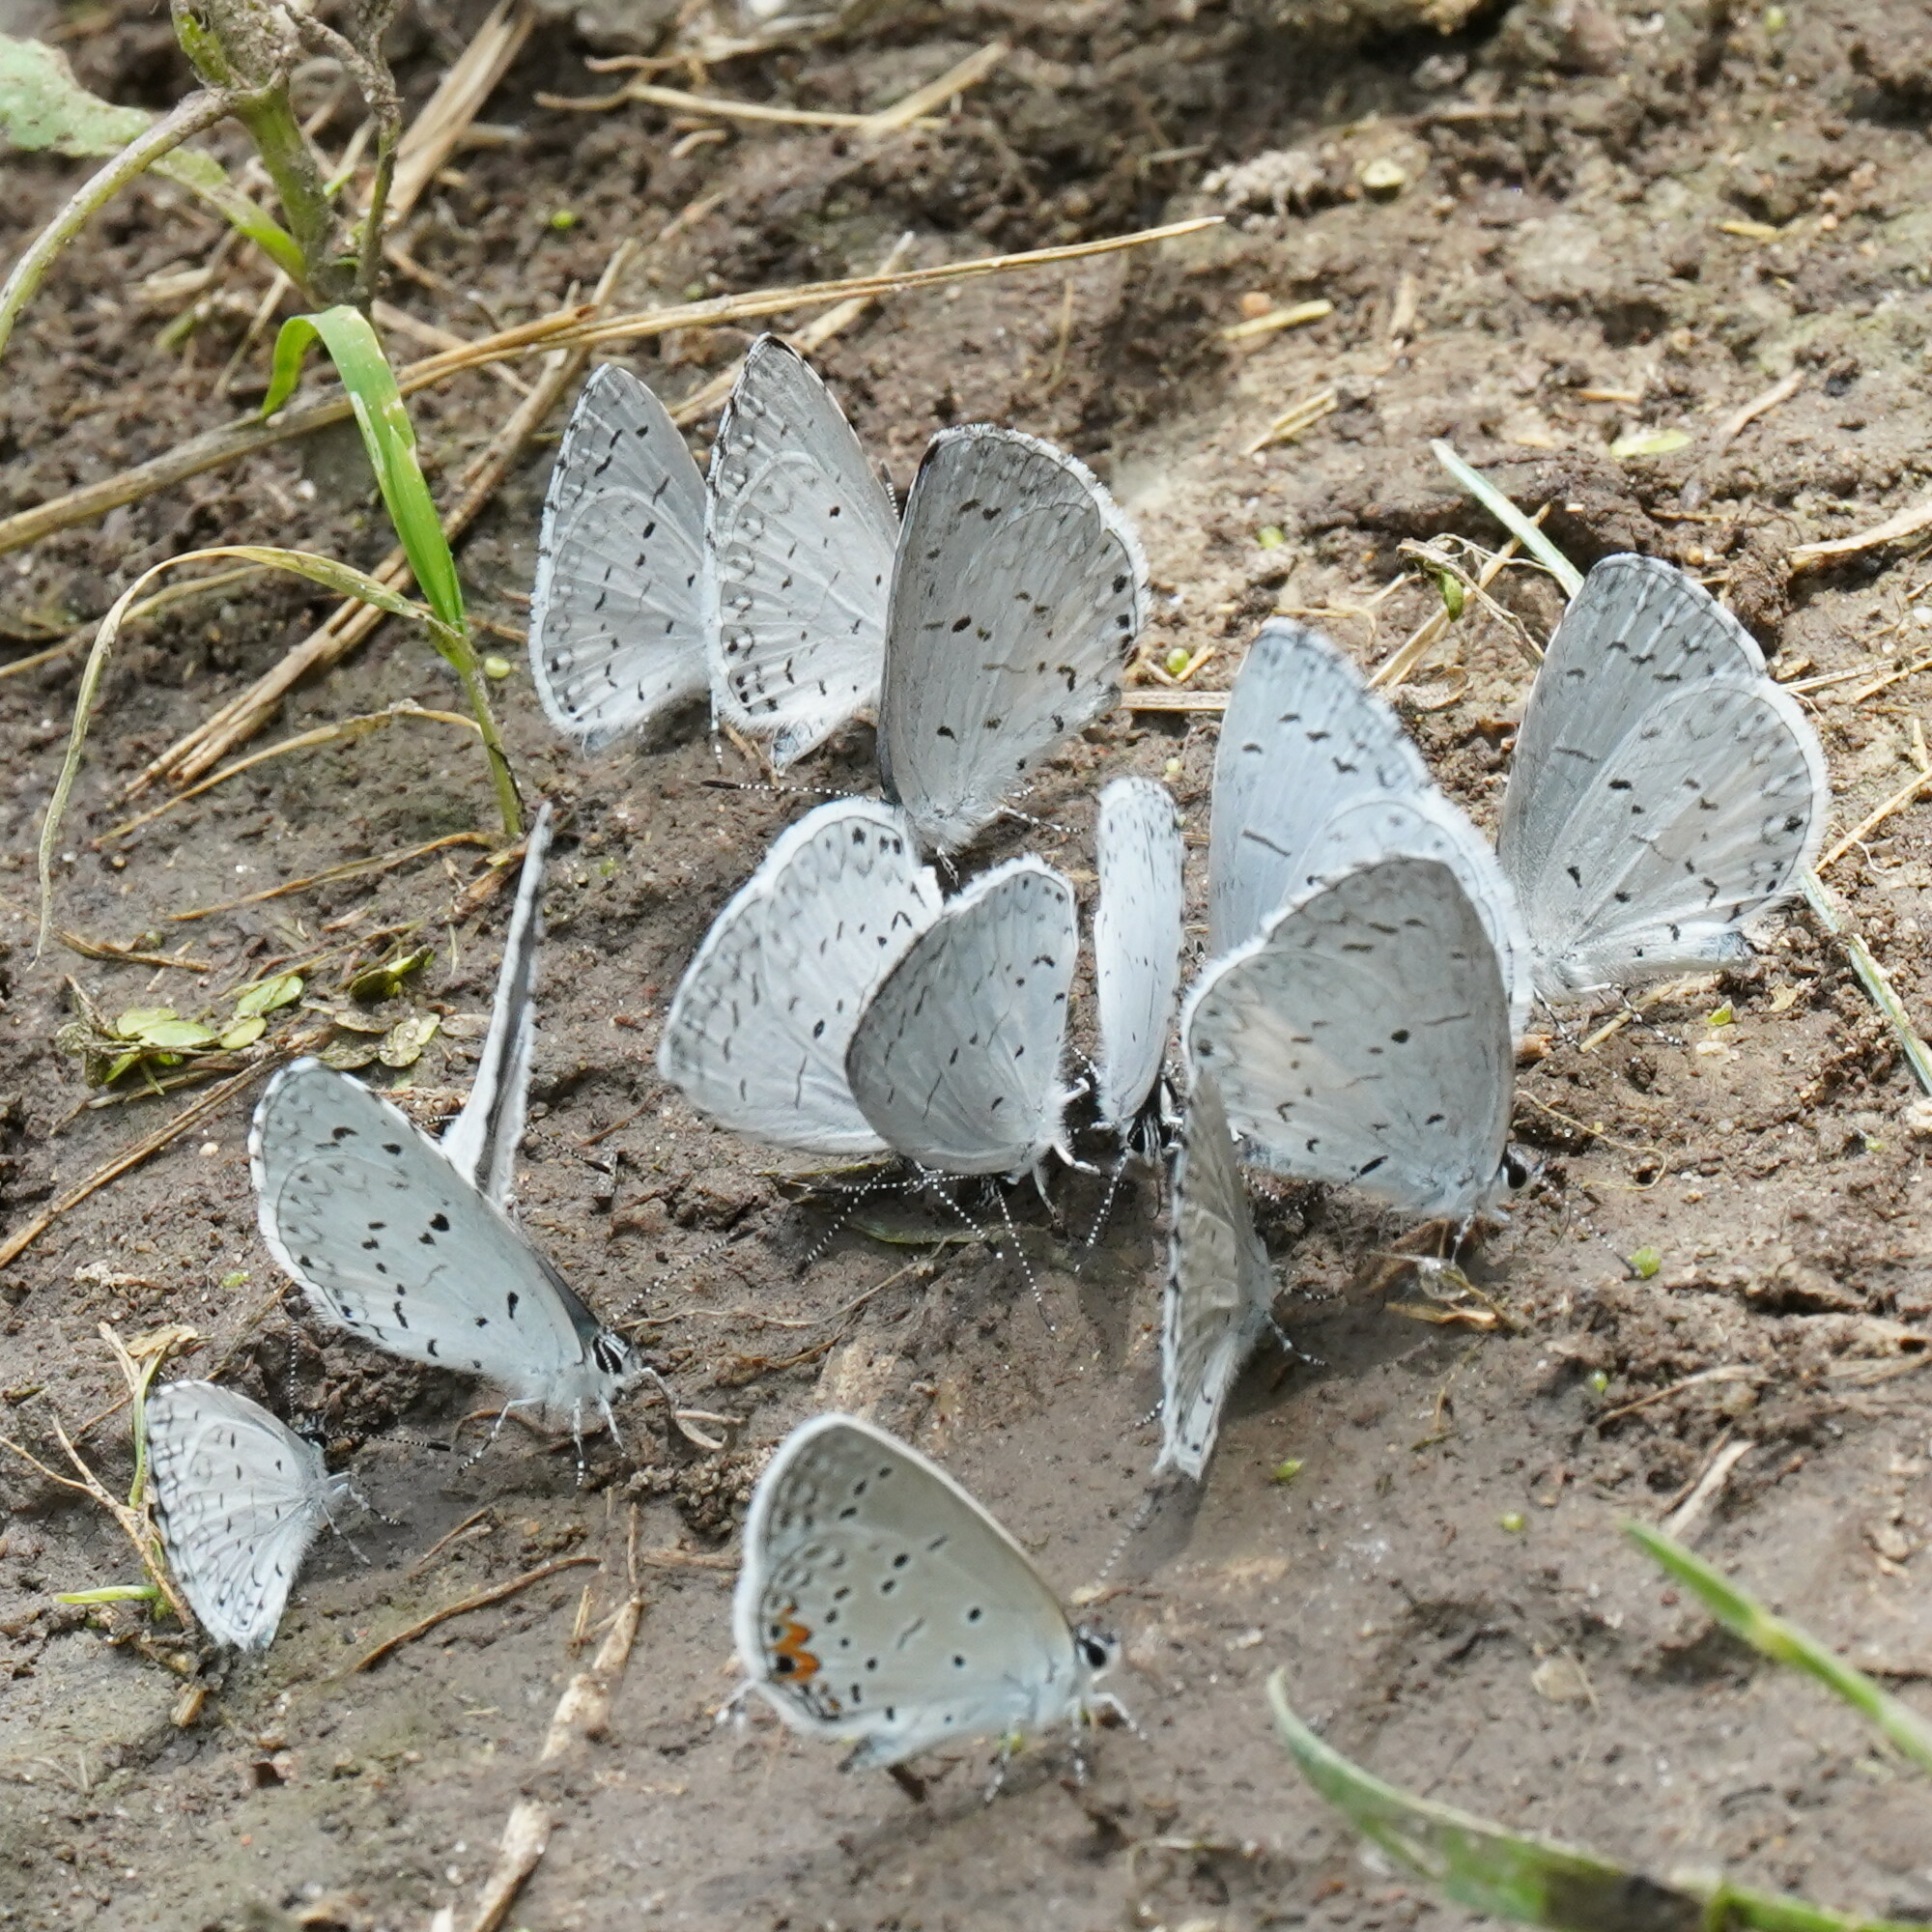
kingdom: Animalia
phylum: Arthropoda
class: Insecta
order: Lepidoptera
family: Lycaenidae
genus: Cyaniris
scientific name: Cyaniris neglecta
